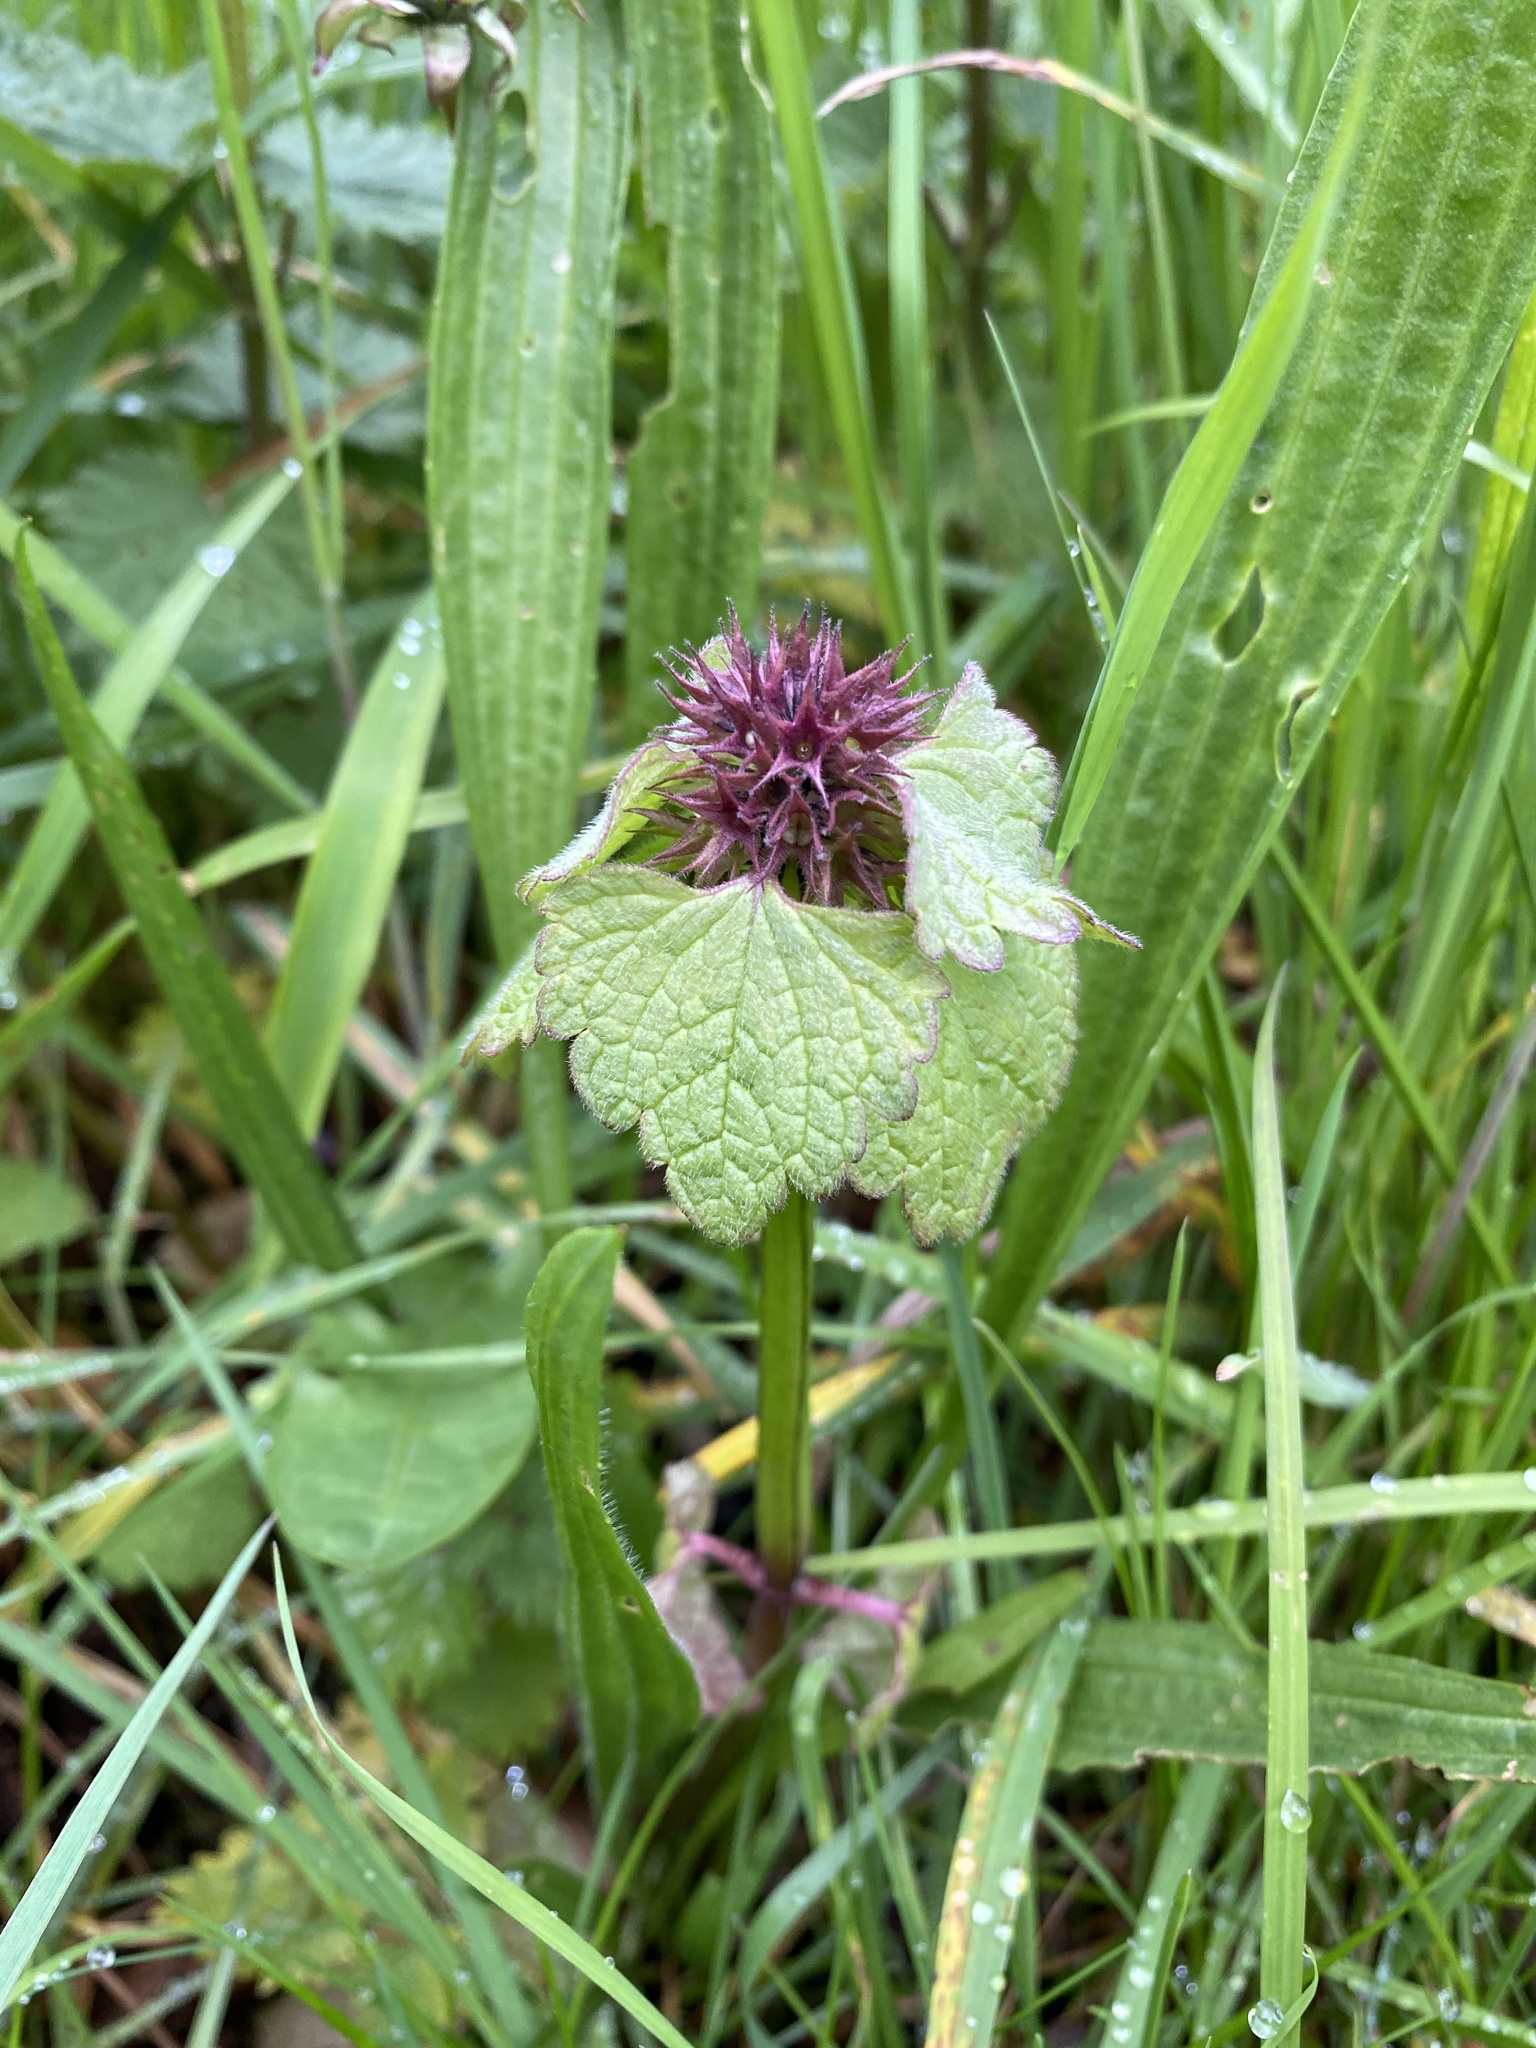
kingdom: Plantae
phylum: Tracheophyta
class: Magnoliopsida
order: Lamiales
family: Lamiaceae
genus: Lamium
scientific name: Lamium purpureum
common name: Red dead-nettle
